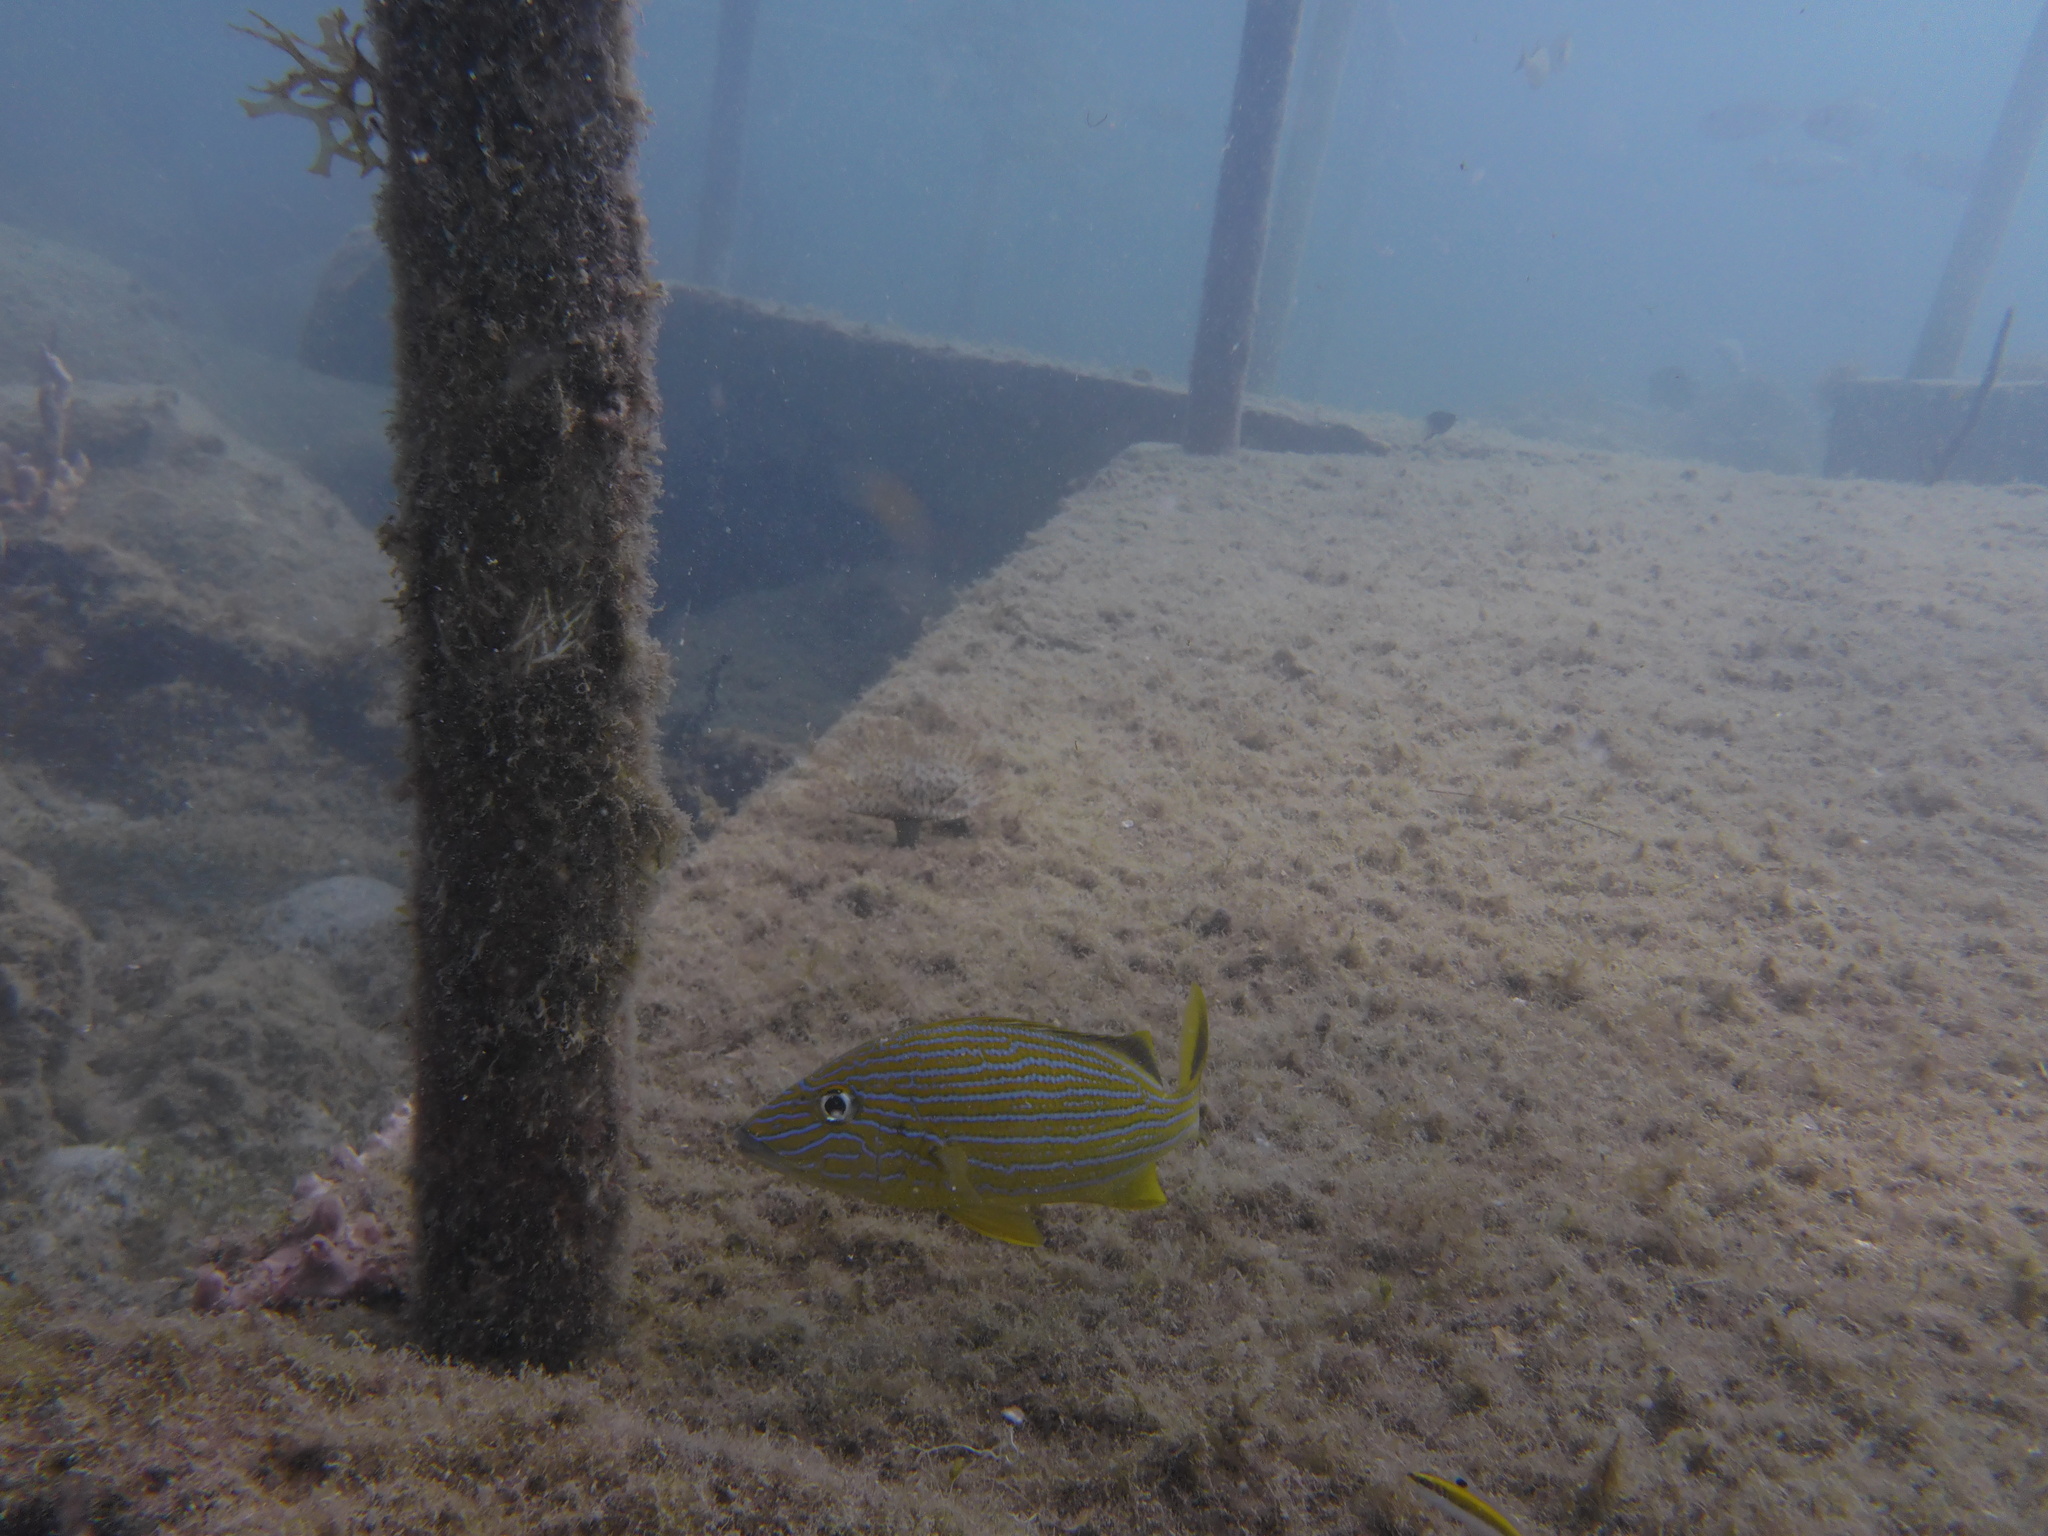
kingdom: Animalia
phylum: Chordata
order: Perciformes
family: Haemulidae
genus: Haemulon
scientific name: Haemulon sciurus
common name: Bluestriped grunt
